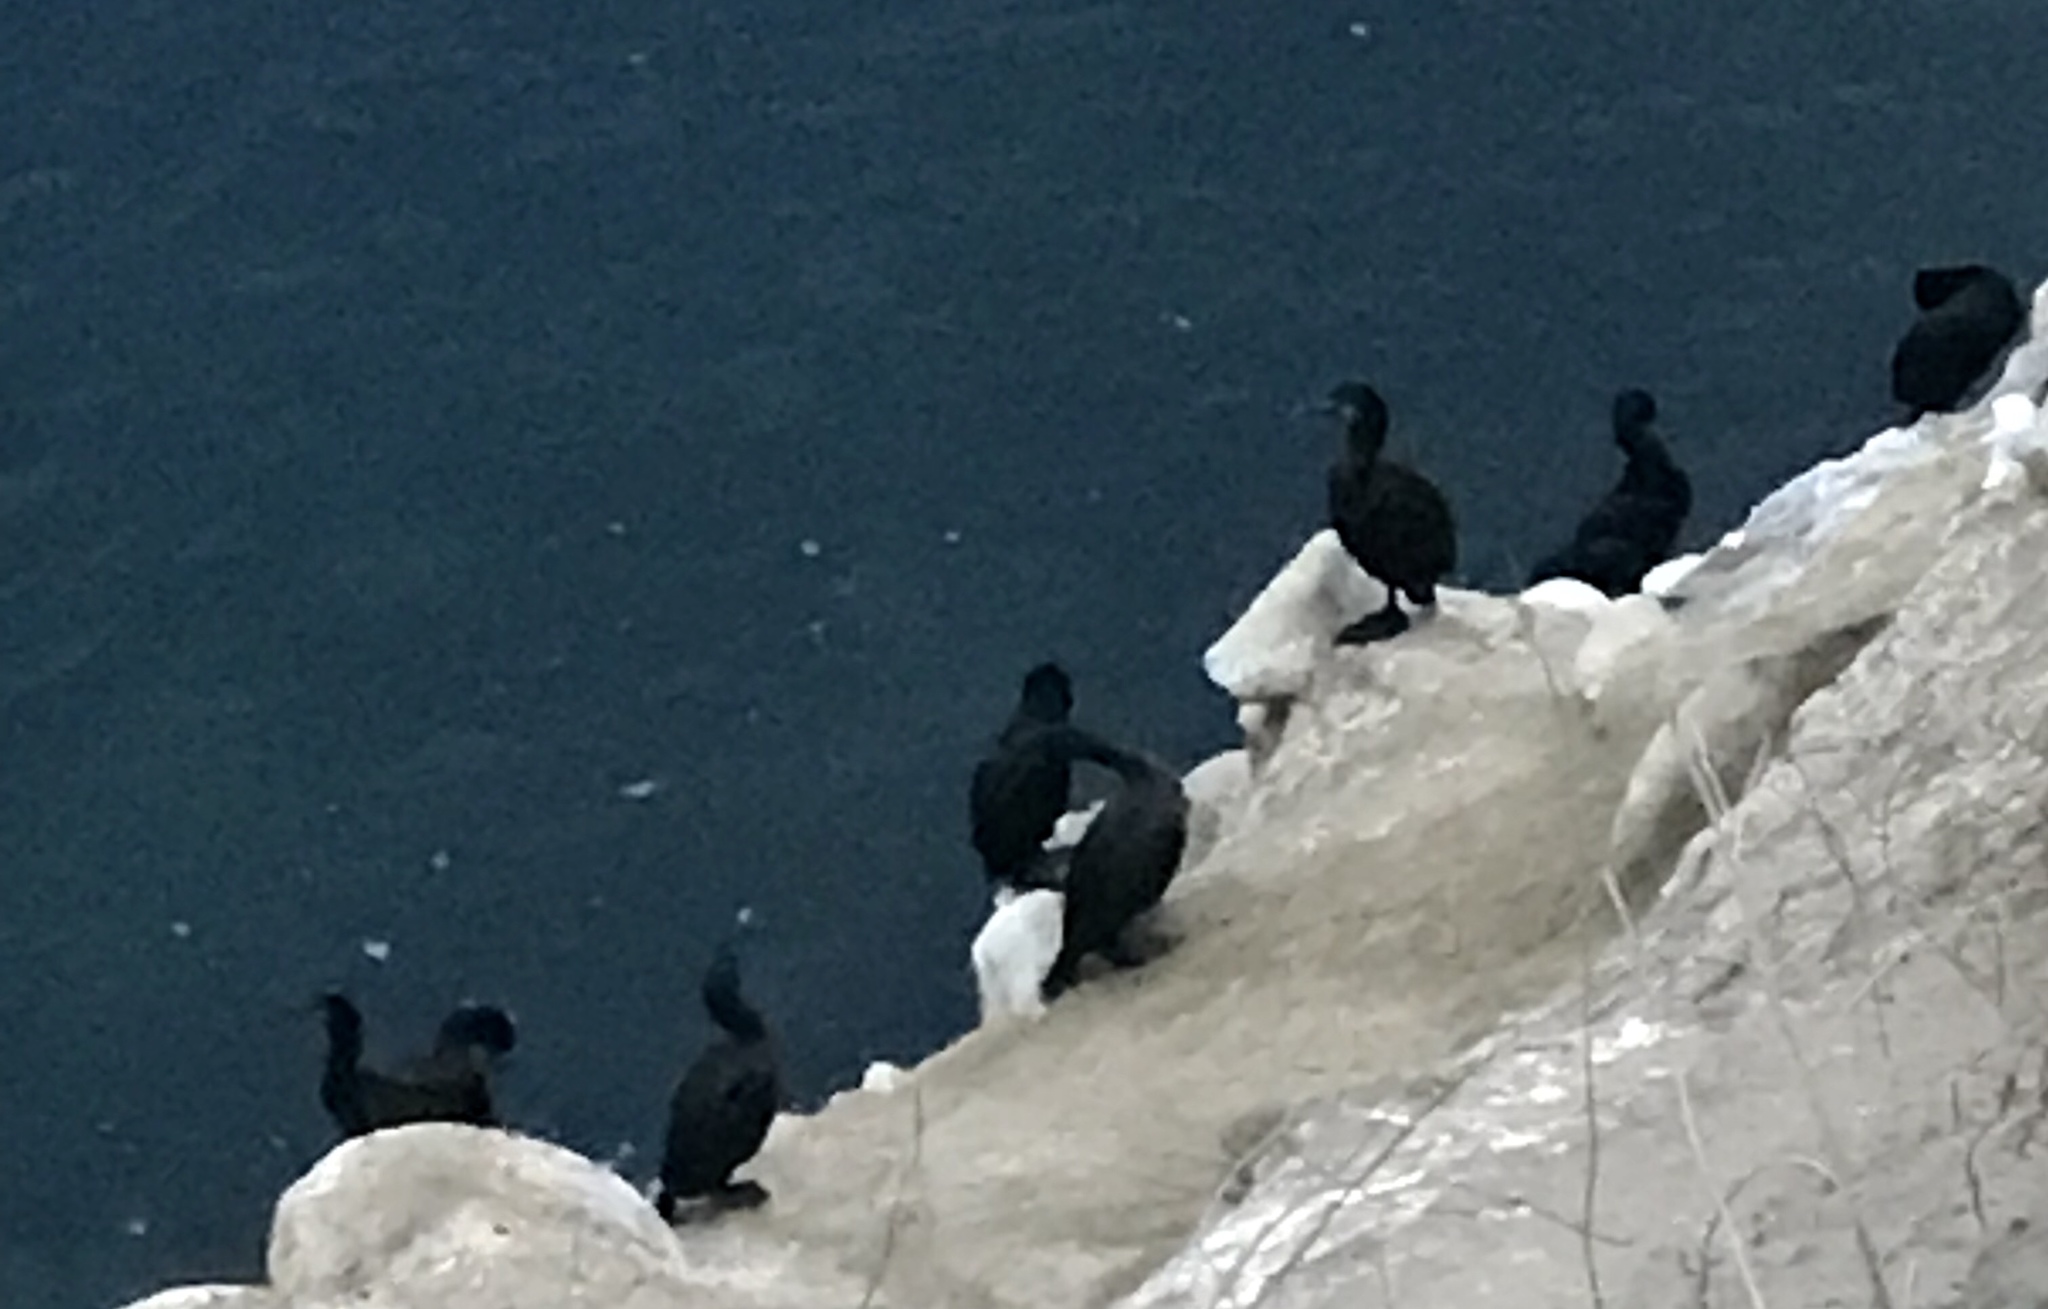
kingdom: Animalia
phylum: Chordata
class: Aves
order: Suliformes
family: Phalacrocoracidae
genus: Urile
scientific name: Urile penicillatus
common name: Brandt's cormorant
